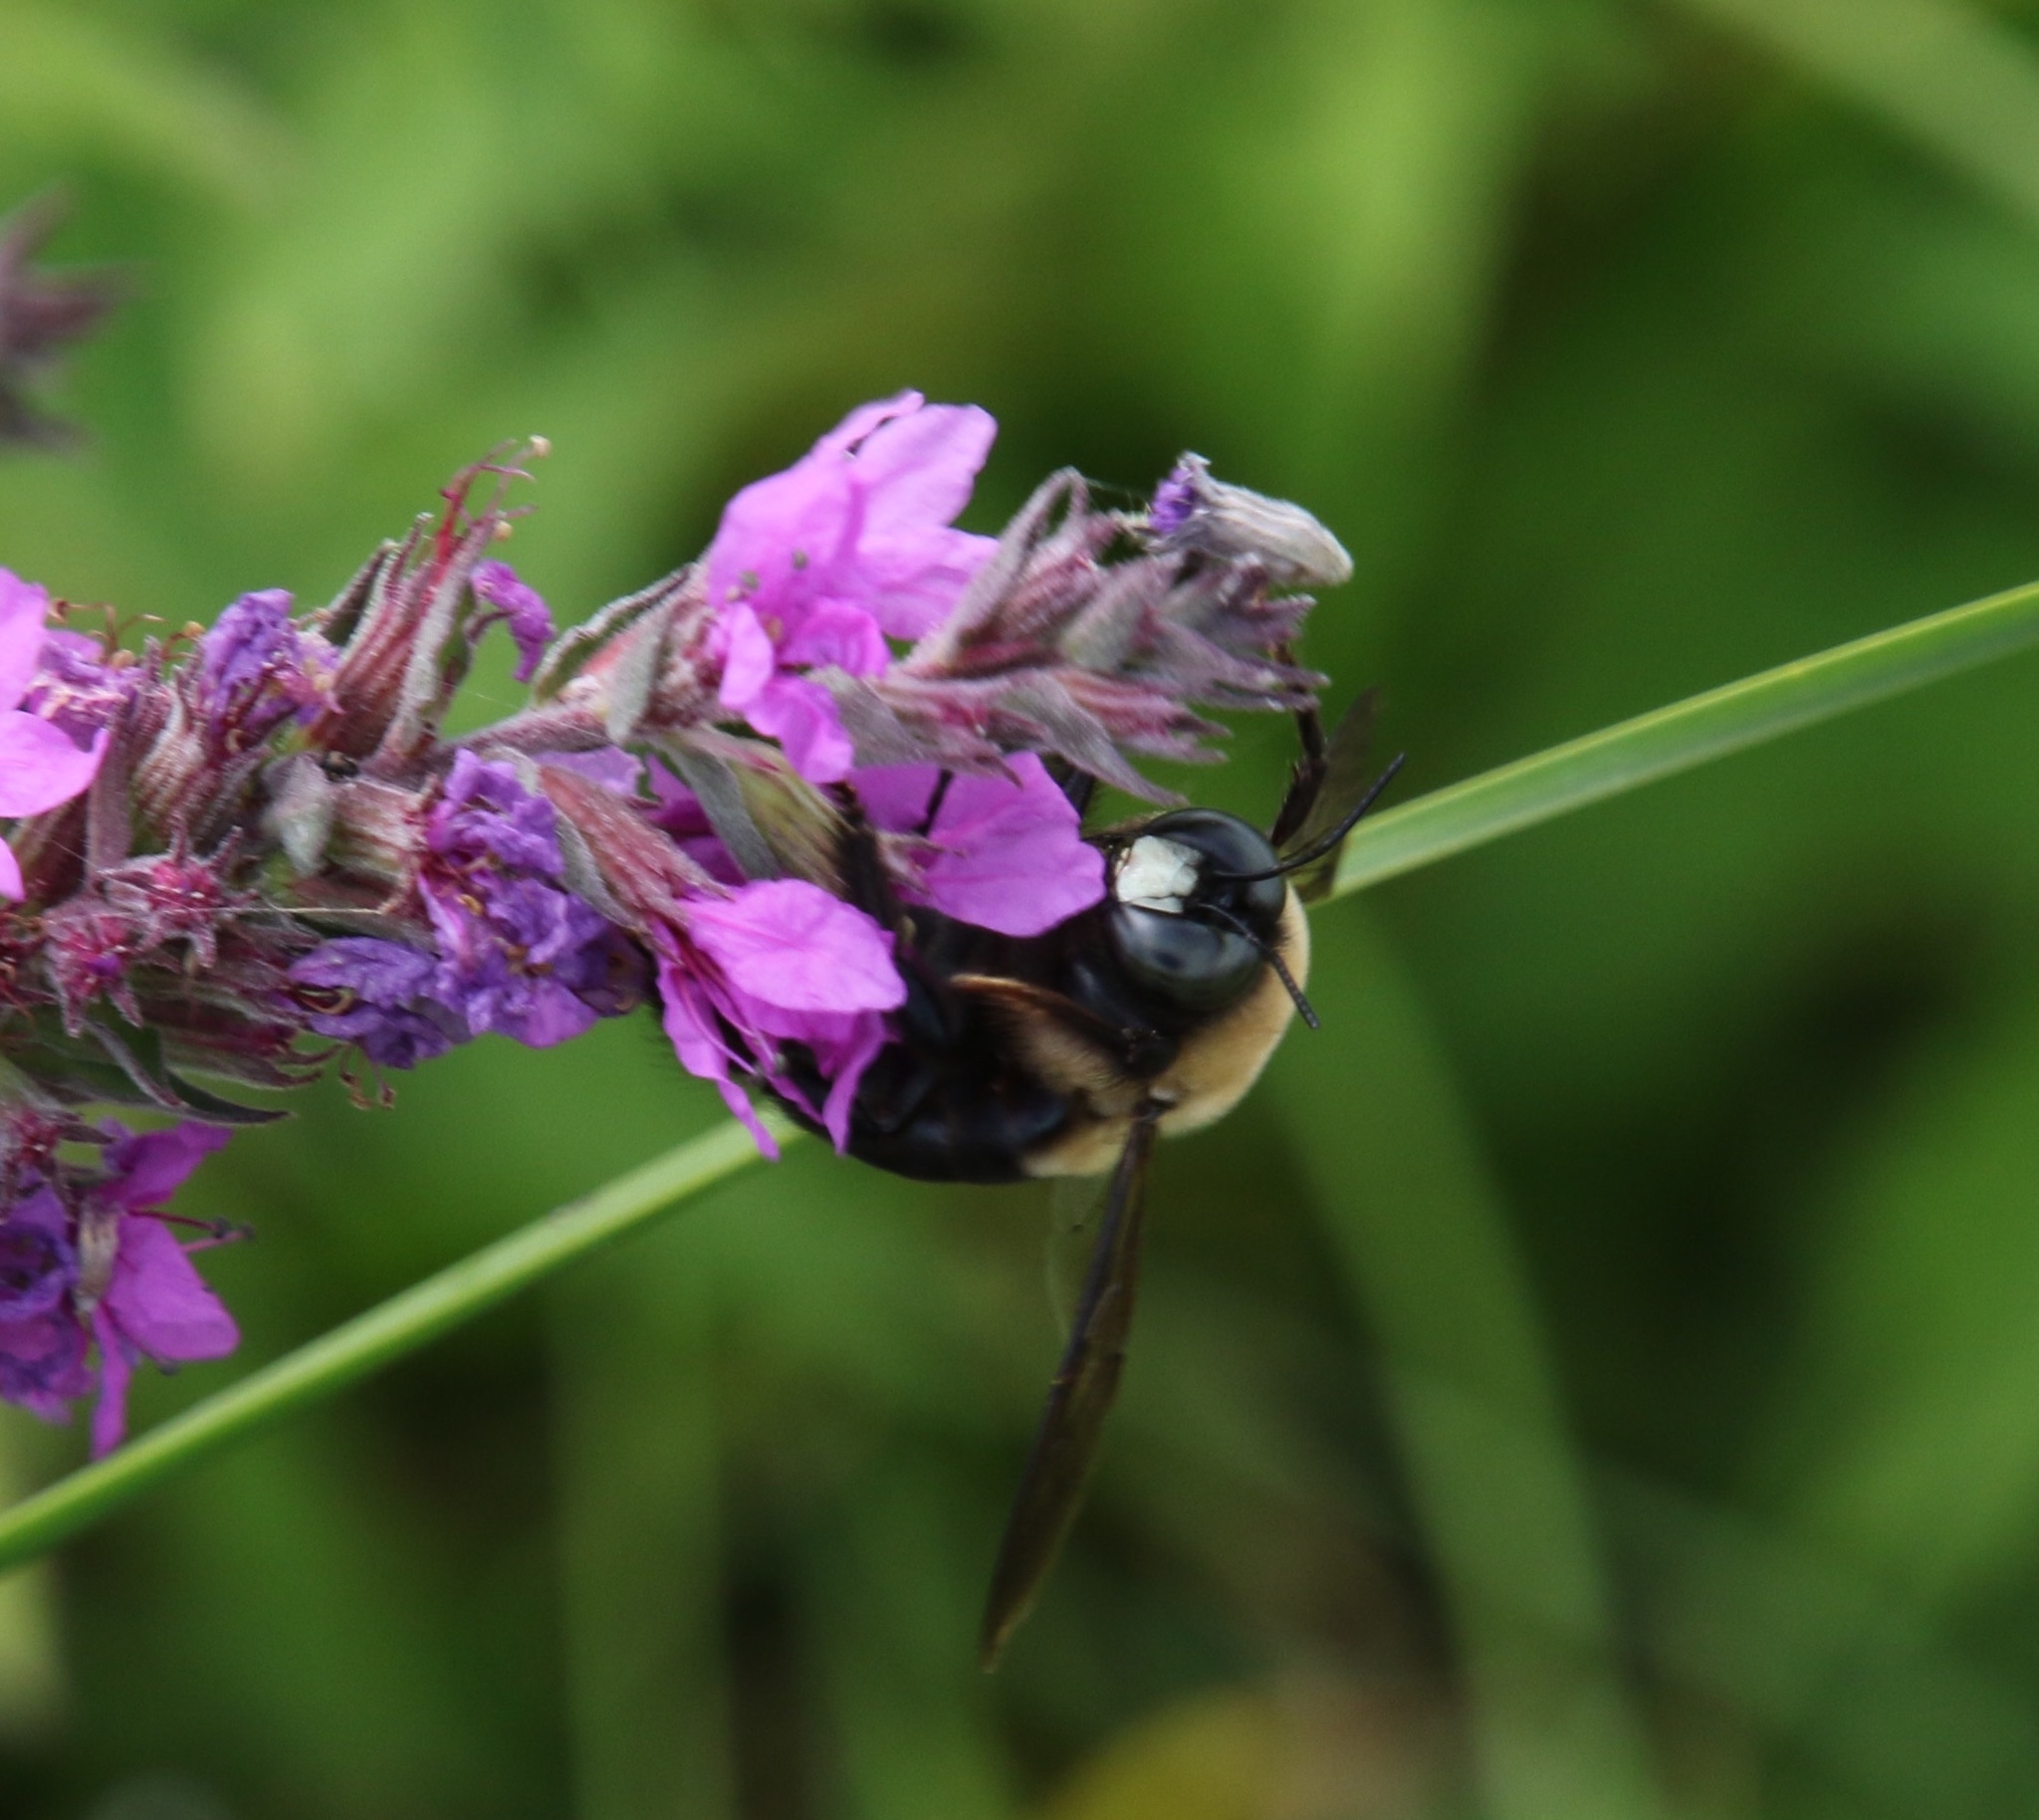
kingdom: Animalia
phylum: Arthropoda
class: Insecta
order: Hymenoptera
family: Apidae
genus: Xylocopa
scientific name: Xylocopa virginica
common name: Carpenter bee
